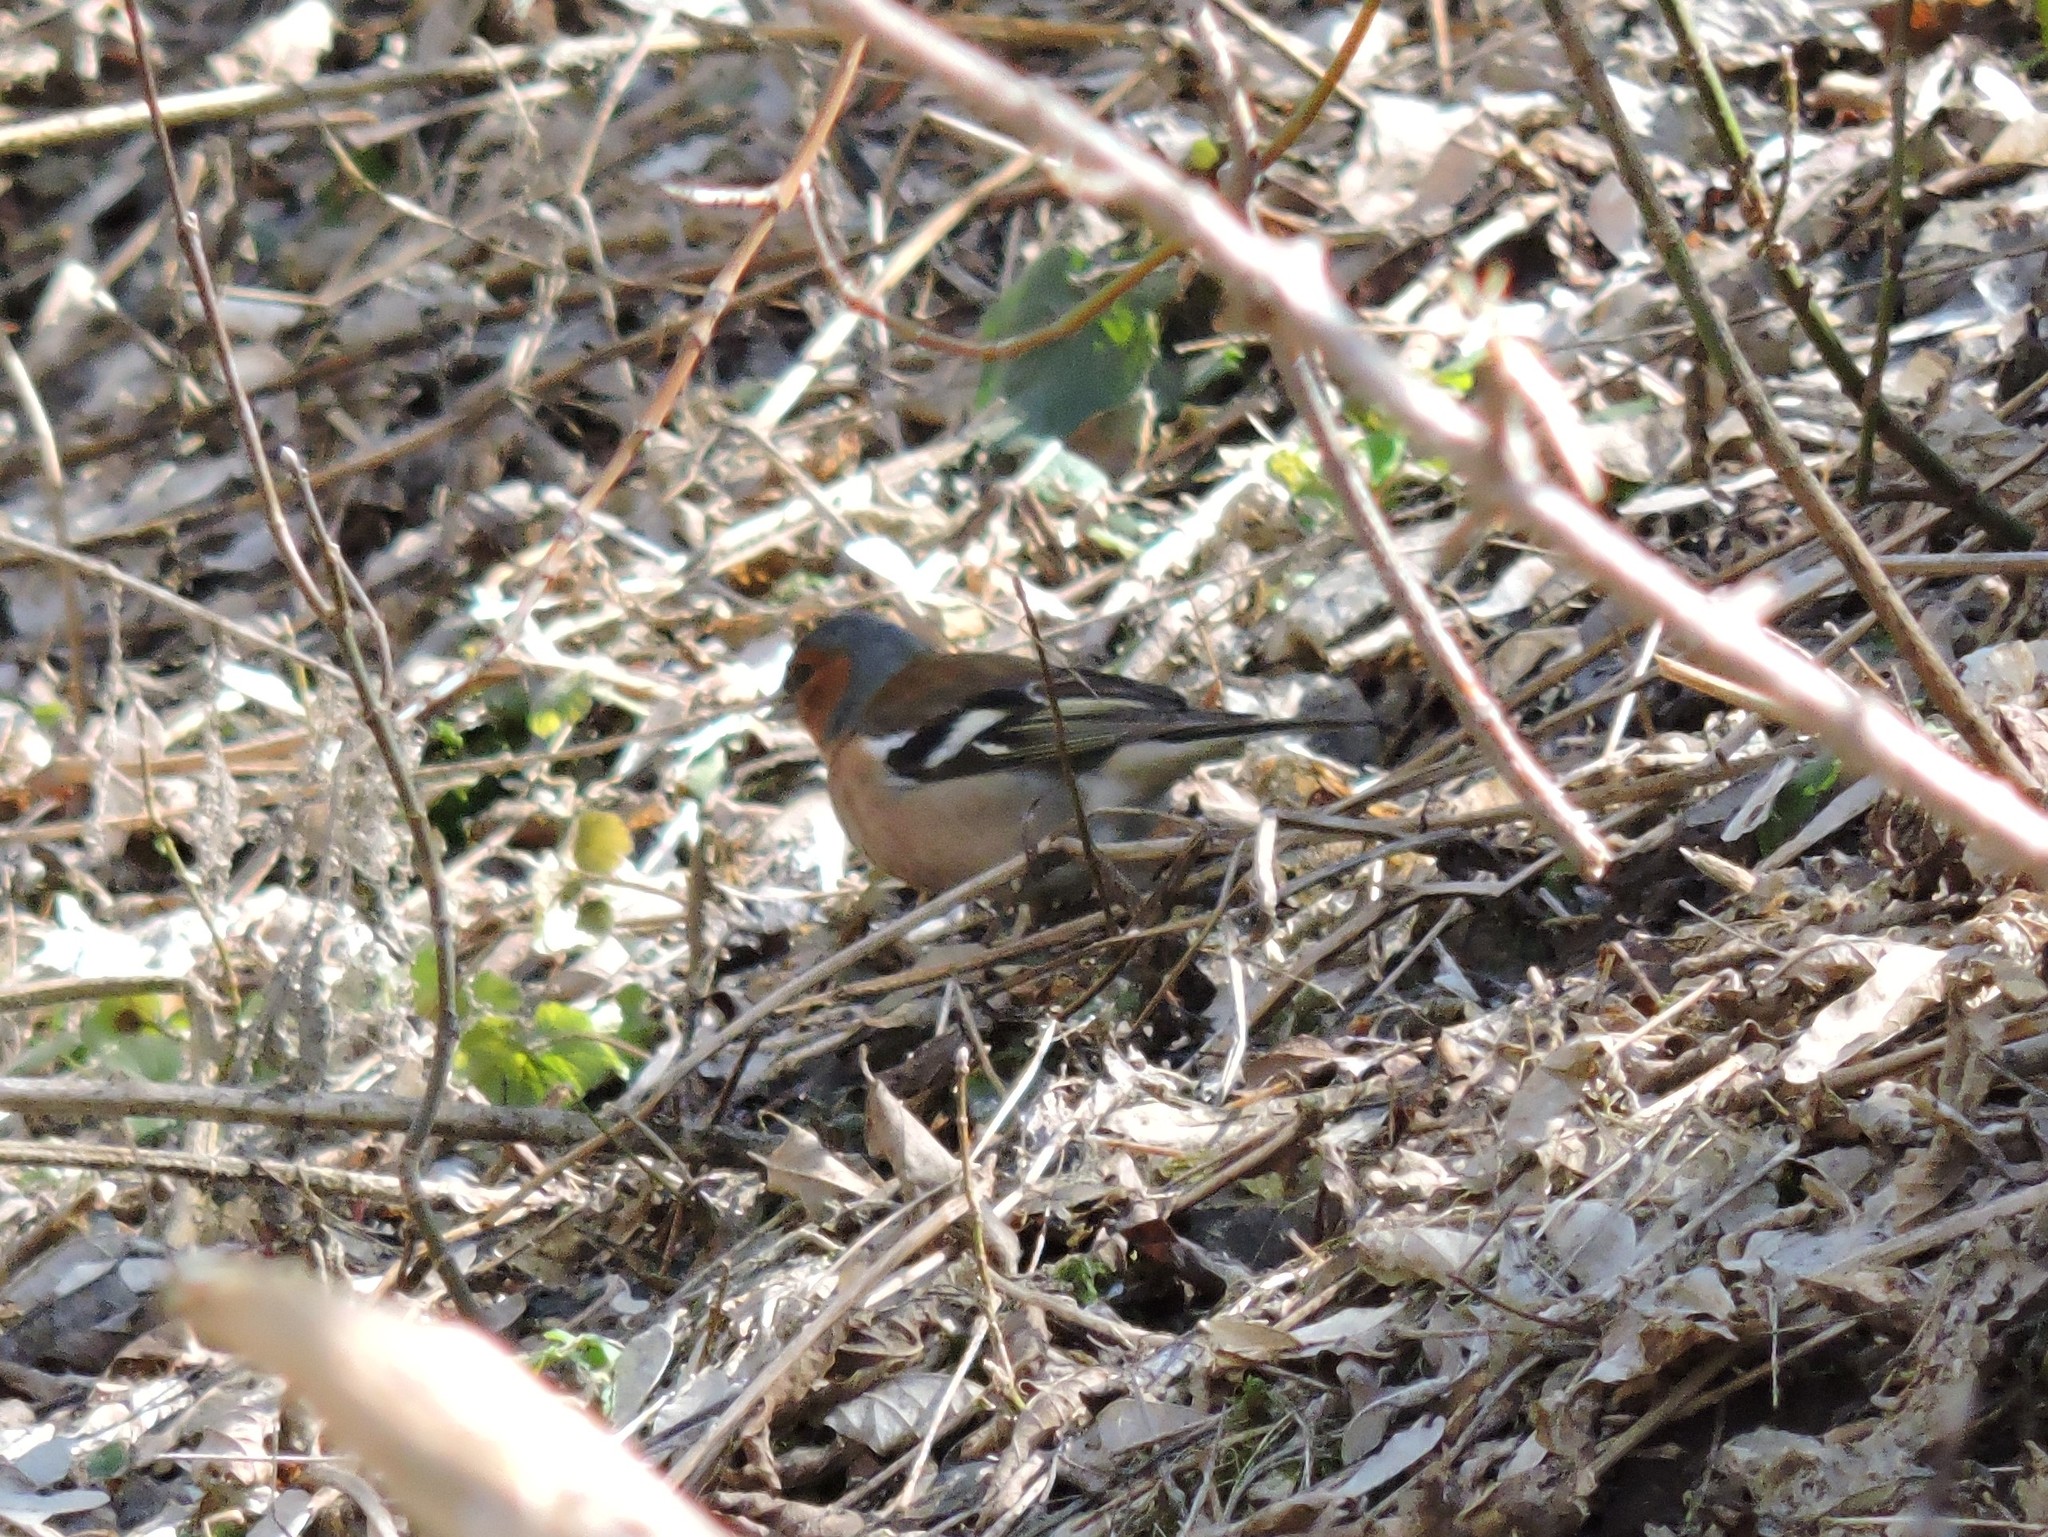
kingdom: Animalia
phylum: Chordata
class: Aves
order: Passeriformes
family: Fringillidae
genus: Fringilla
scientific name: Fringilla coelebs
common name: Common chaffinch
